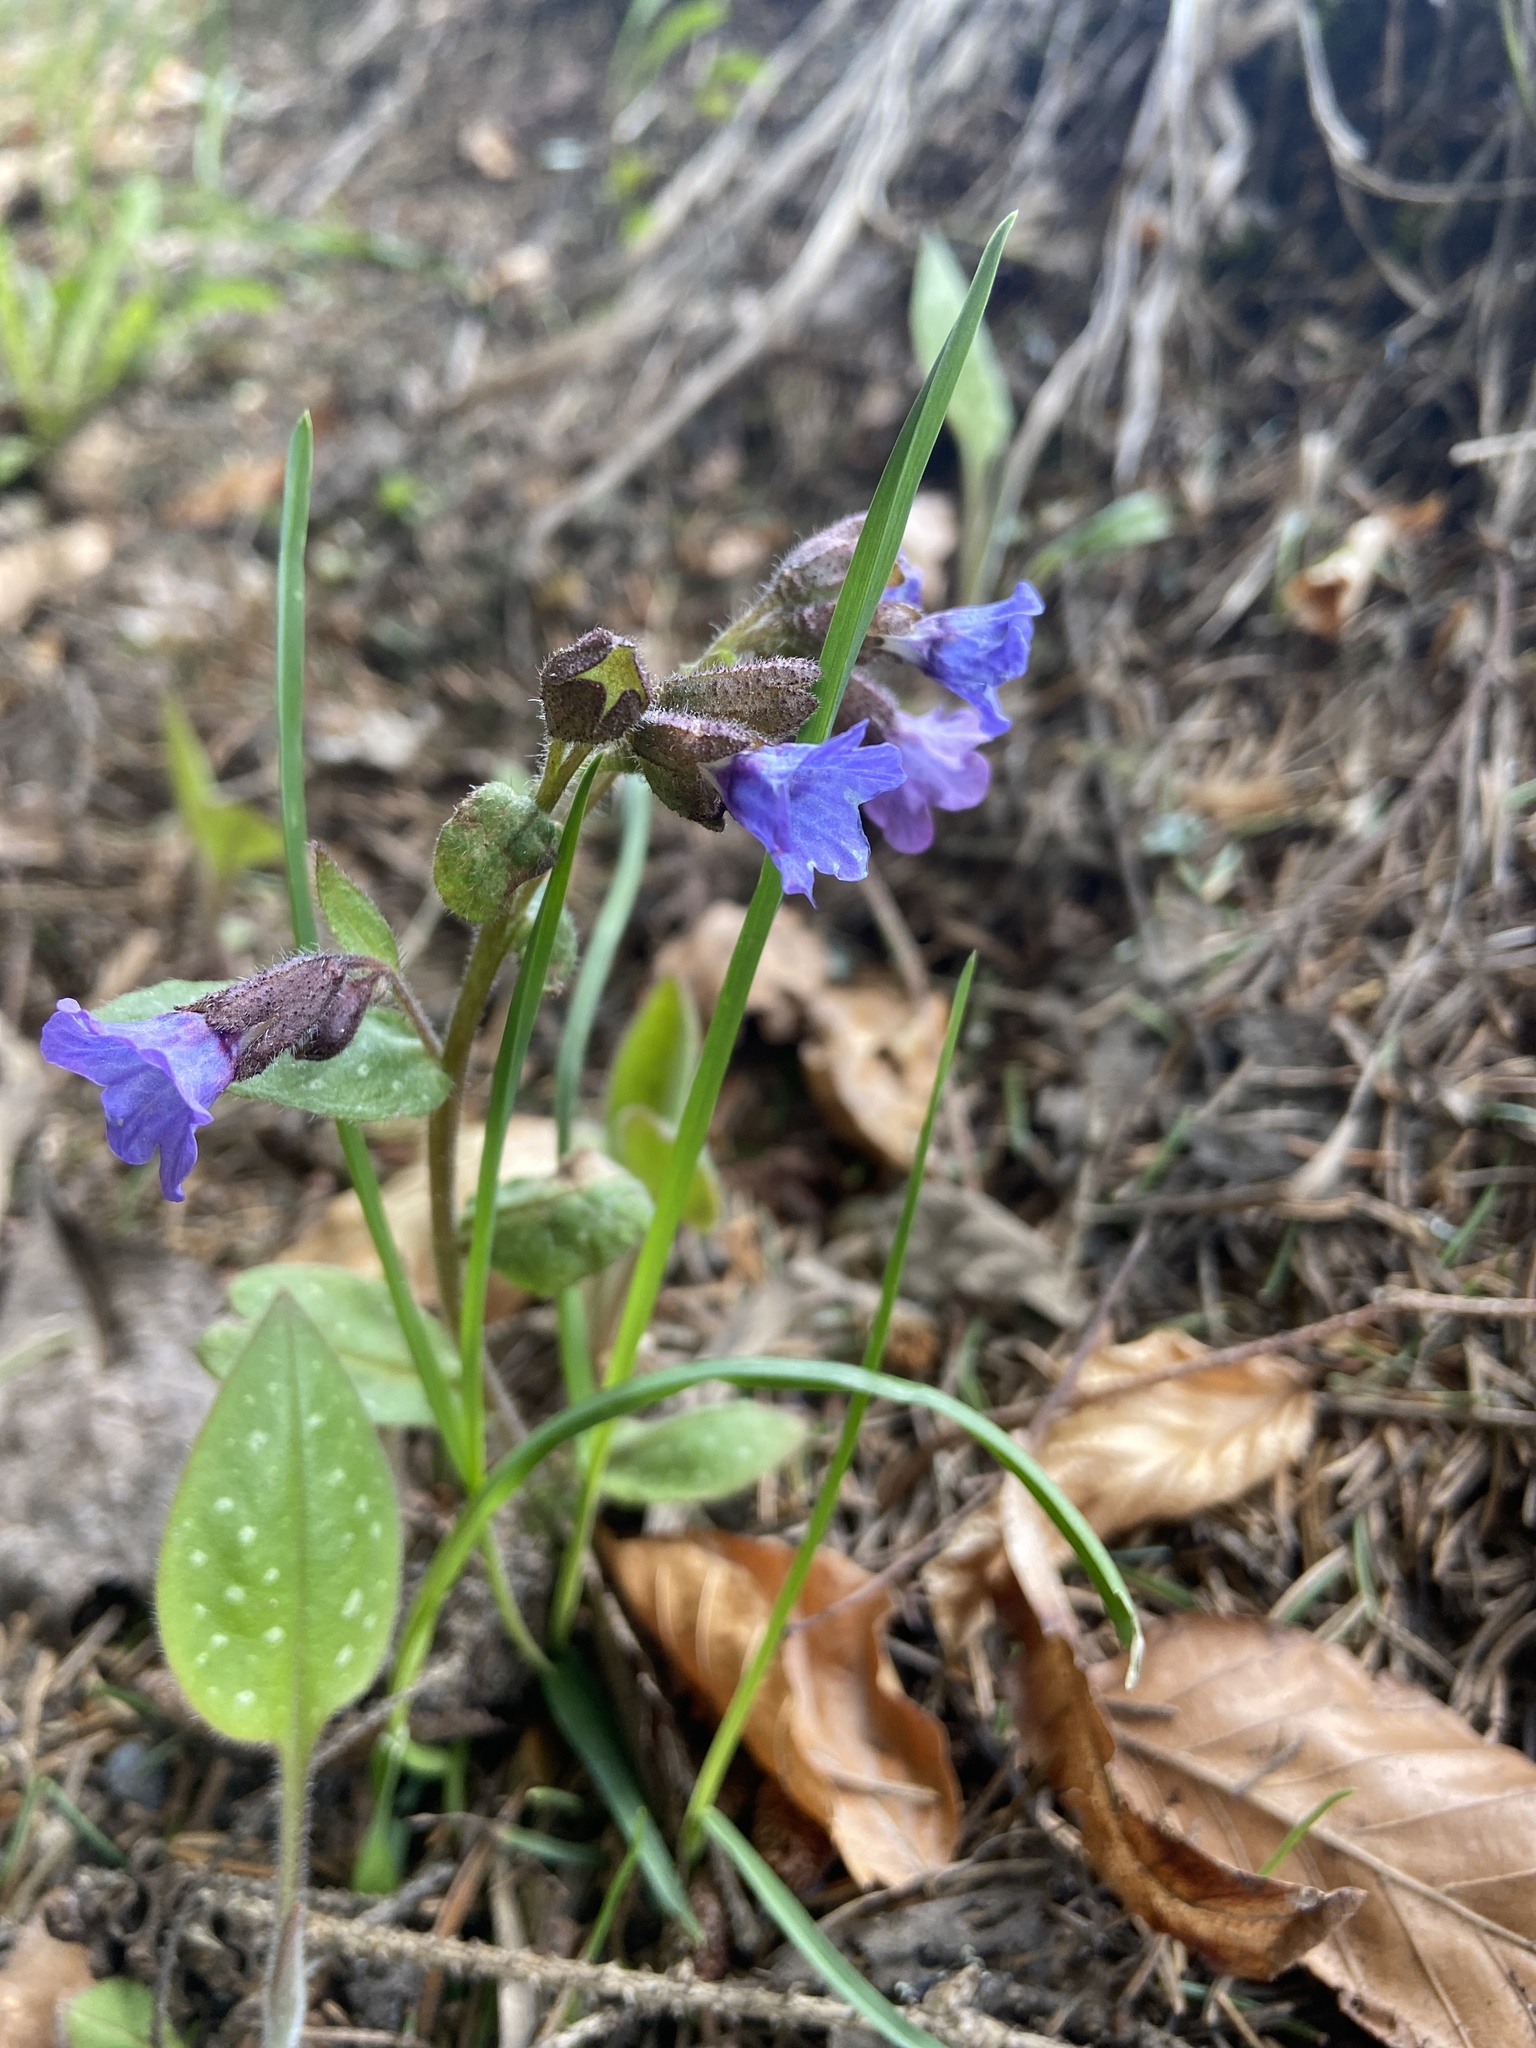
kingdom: Plantae
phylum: Tracheophyta
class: Magnoliopsida
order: Boraginales
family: Boraginaceae
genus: Pulmonaria
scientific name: Pulmonaria officinalis
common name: Lungwort
